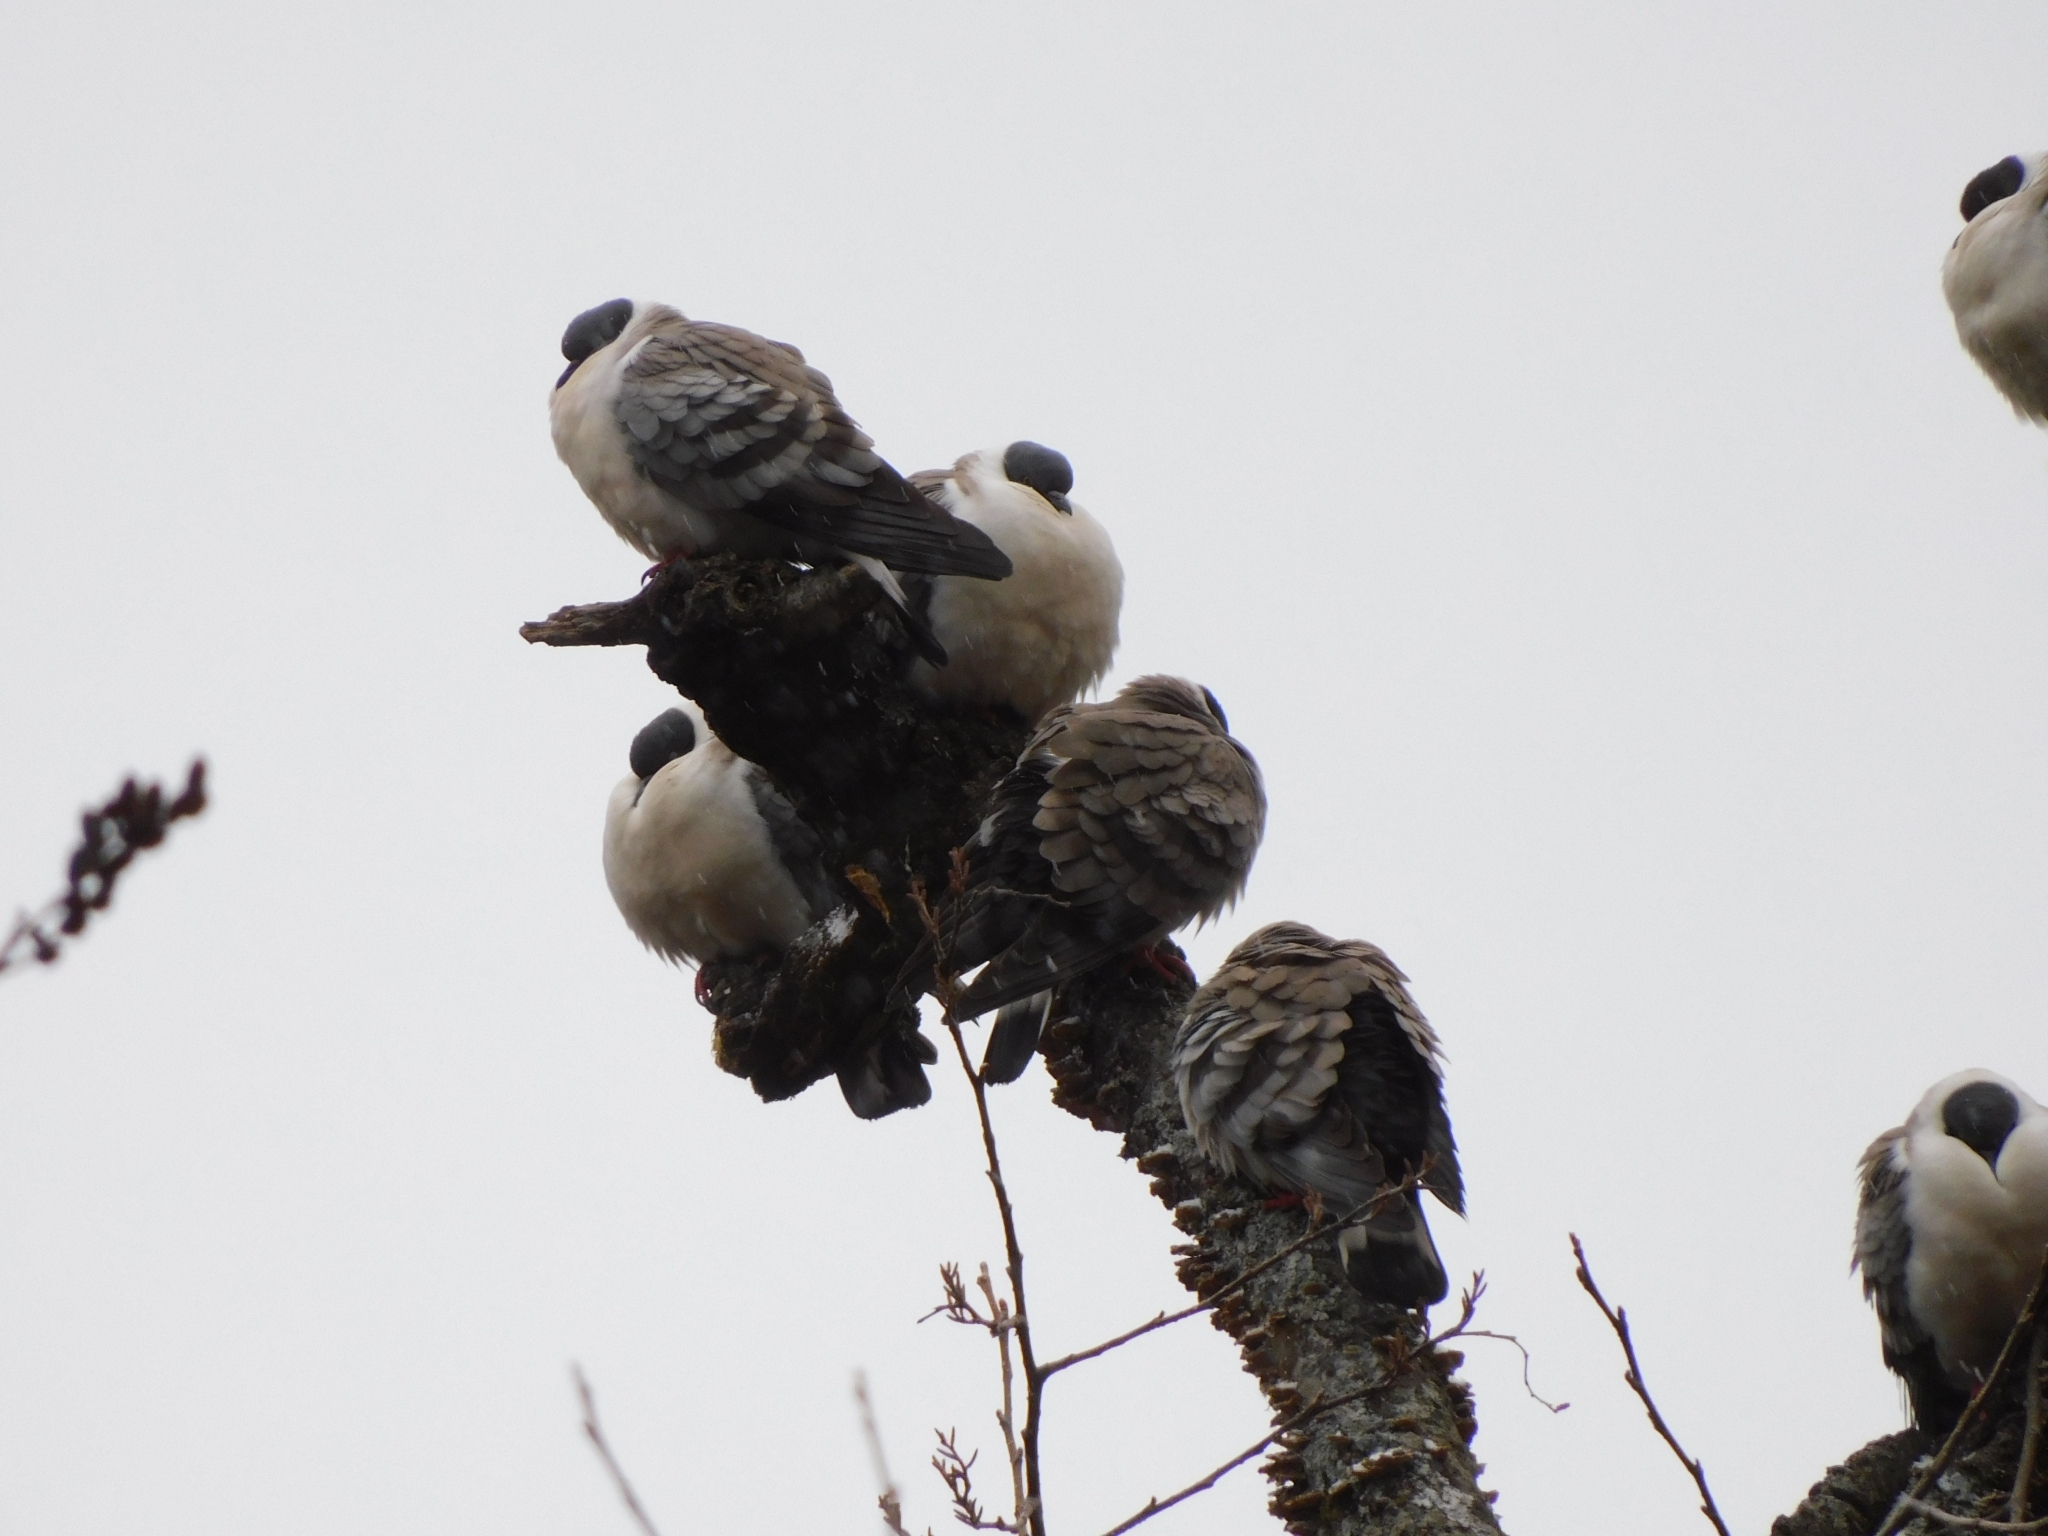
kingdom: Animalia
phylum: Chordata
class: Aves
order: Columbiformes
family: Columbidae
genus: Columba
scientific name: Columba leuconota
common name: Snow pigeon
